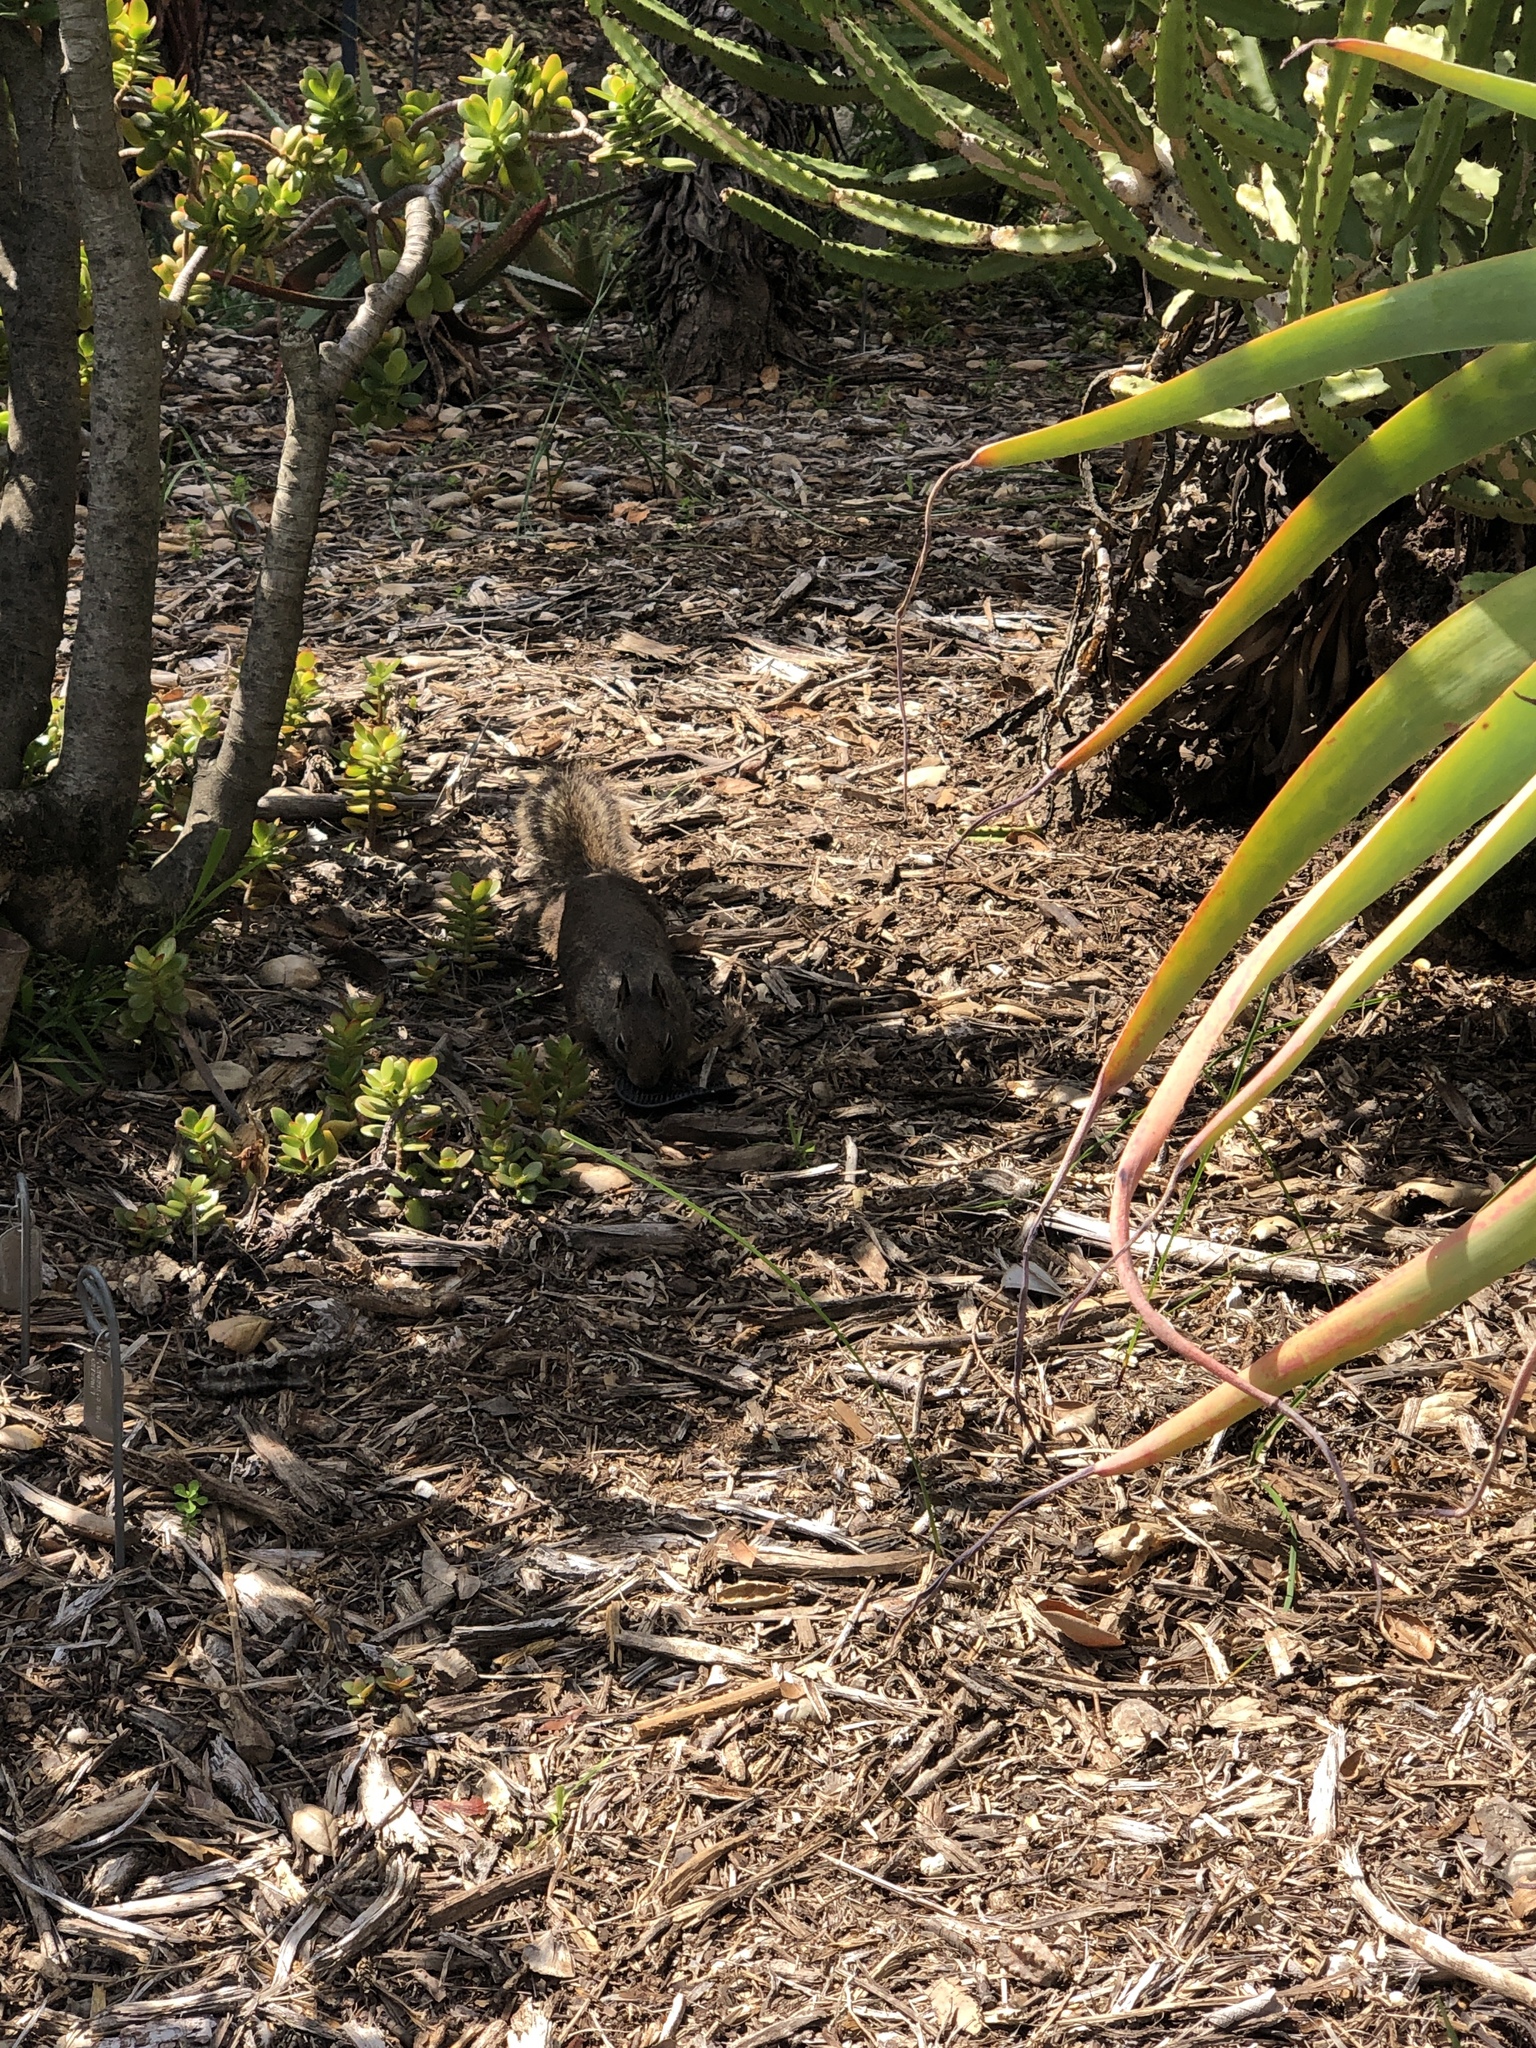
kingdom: Animalia
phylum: Chordata
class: Mammalia
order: Rodentia
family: Sciuridae
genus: Otospermophilus
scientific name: Otospermophilus beecheyi
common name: California ground squirrel
